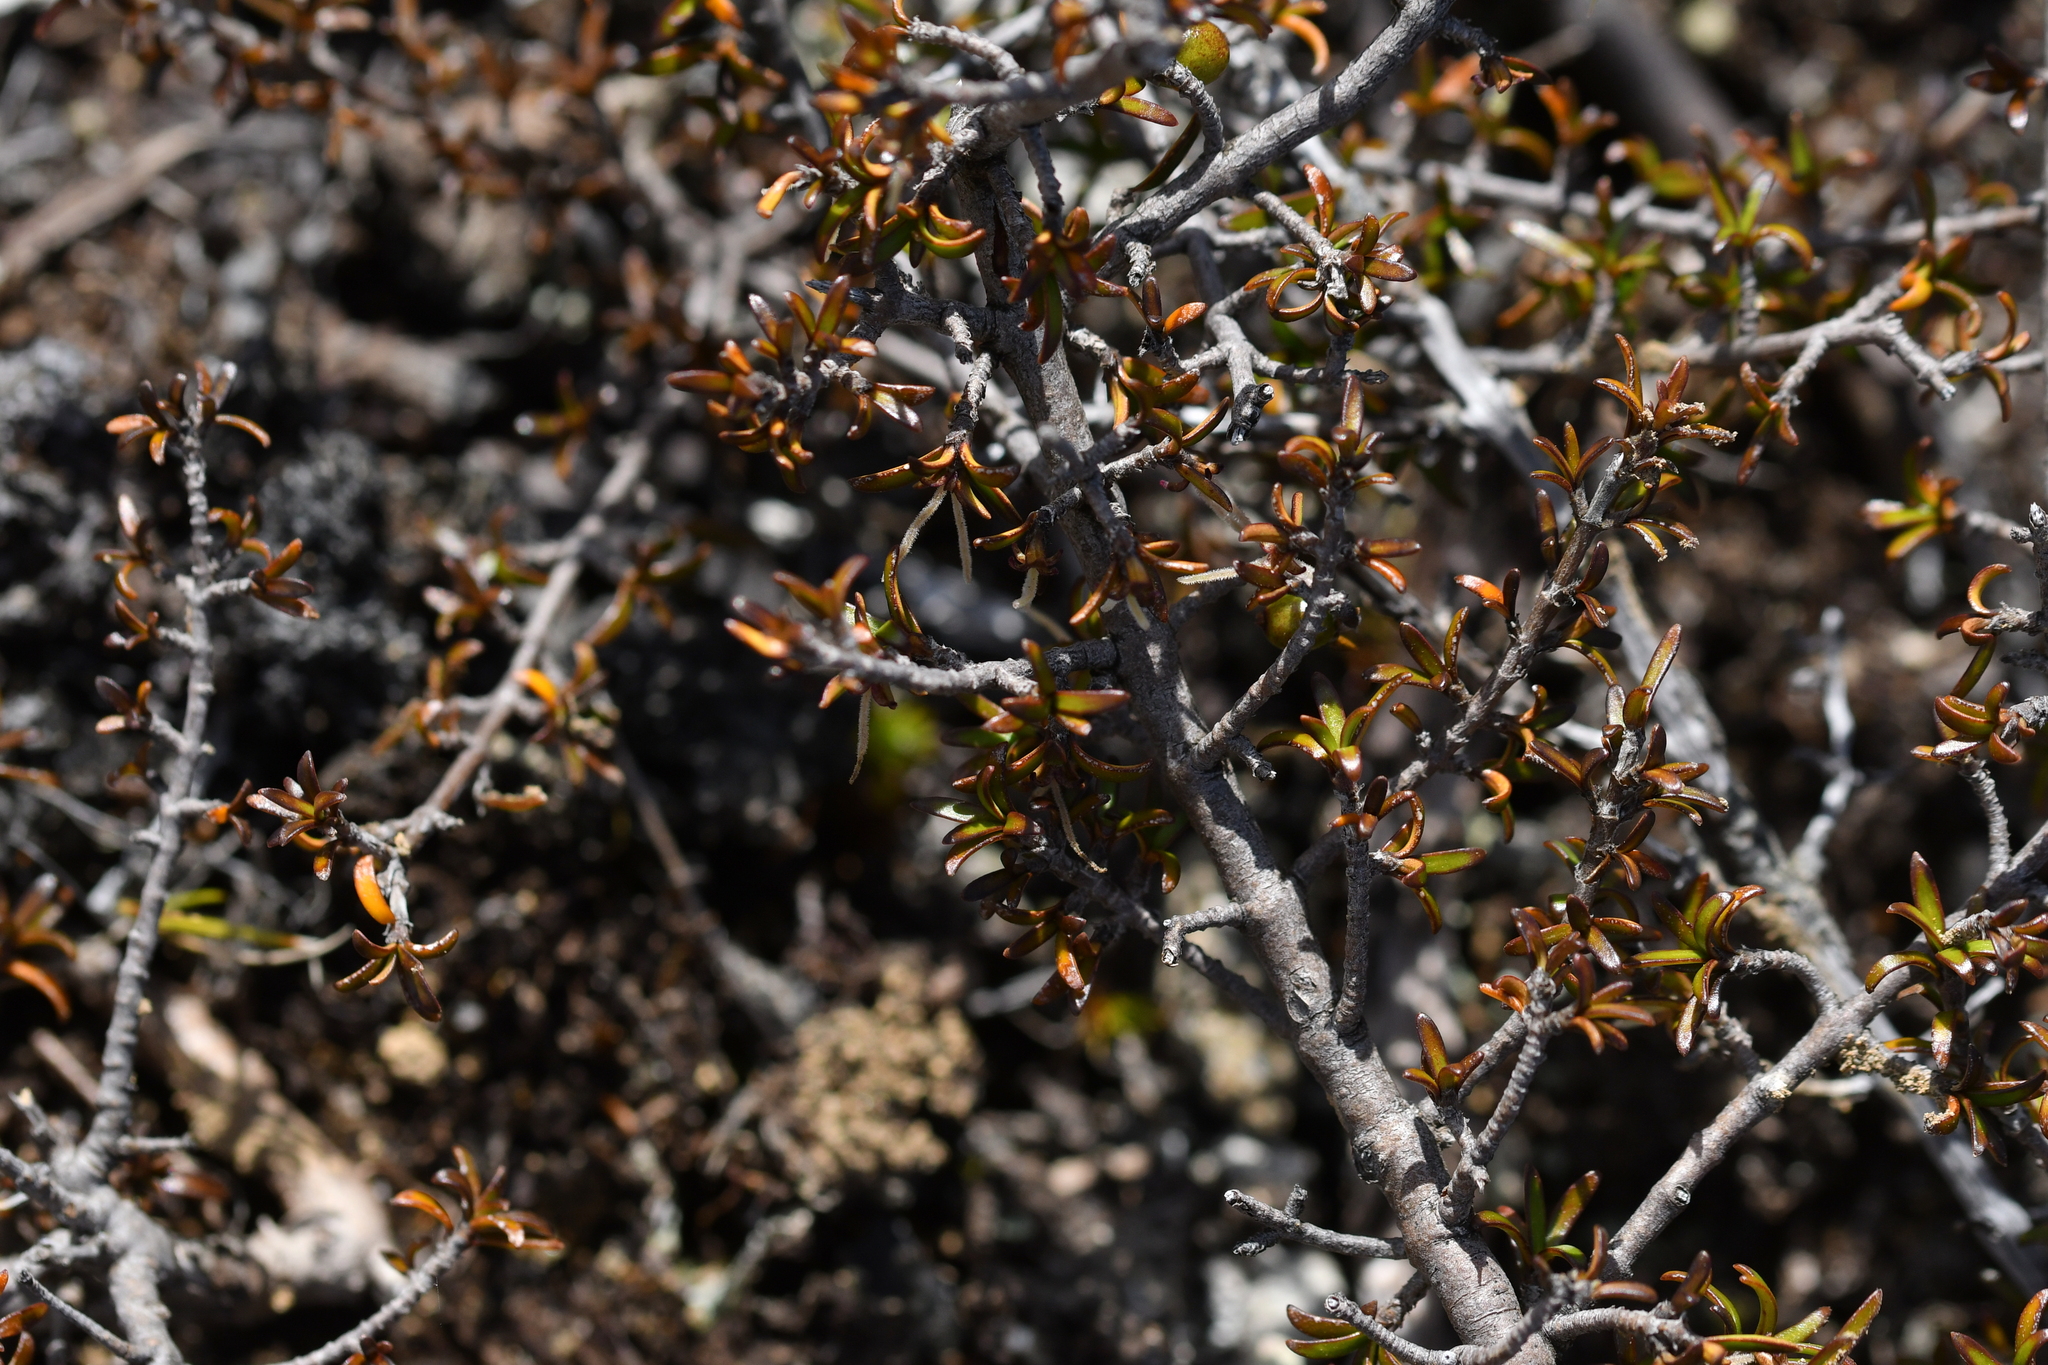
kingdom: Plantae
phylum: Tracheophyta
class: Magnoliopsida
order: Gentianales
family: Rubiaceae
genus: Coprosma
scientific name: Coprosma cheesemanii
